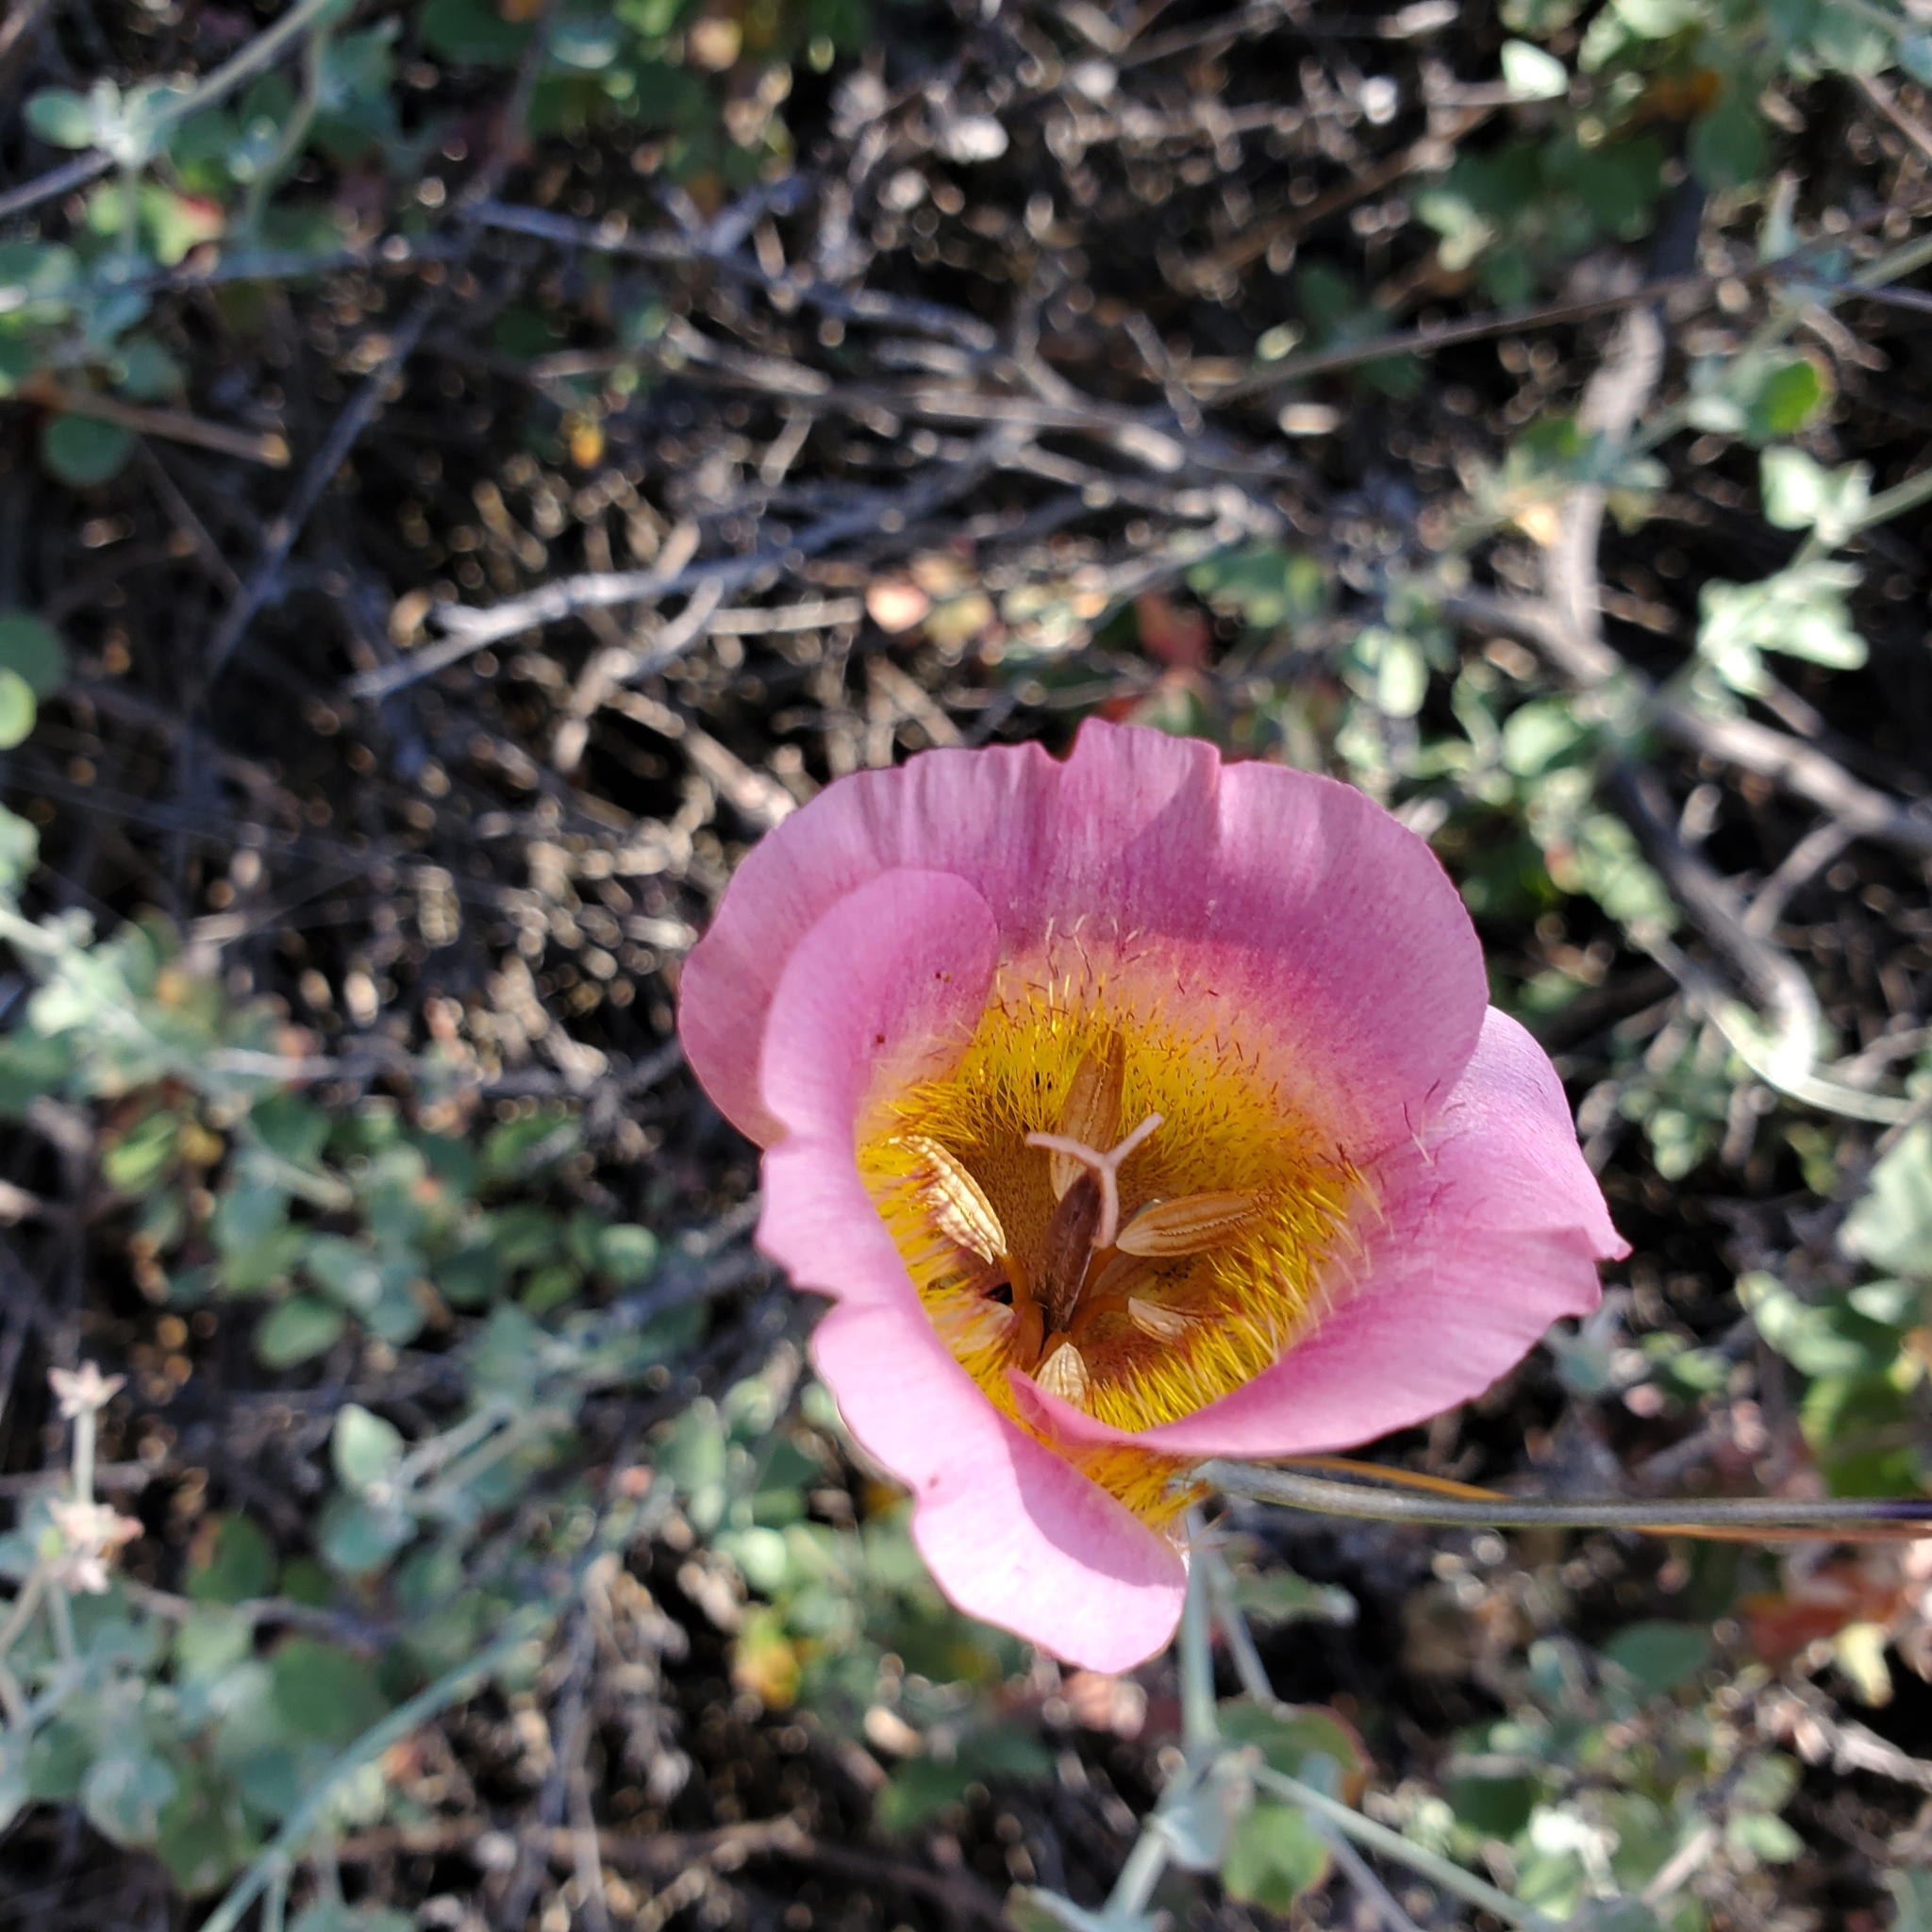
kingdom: Plantae
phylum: Tracheophyta
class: Liliopsida
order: Liliales
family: Liliaceae
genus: Calochortus
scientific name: Calochortus plummerae
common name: Plummer's mariposa-lily
